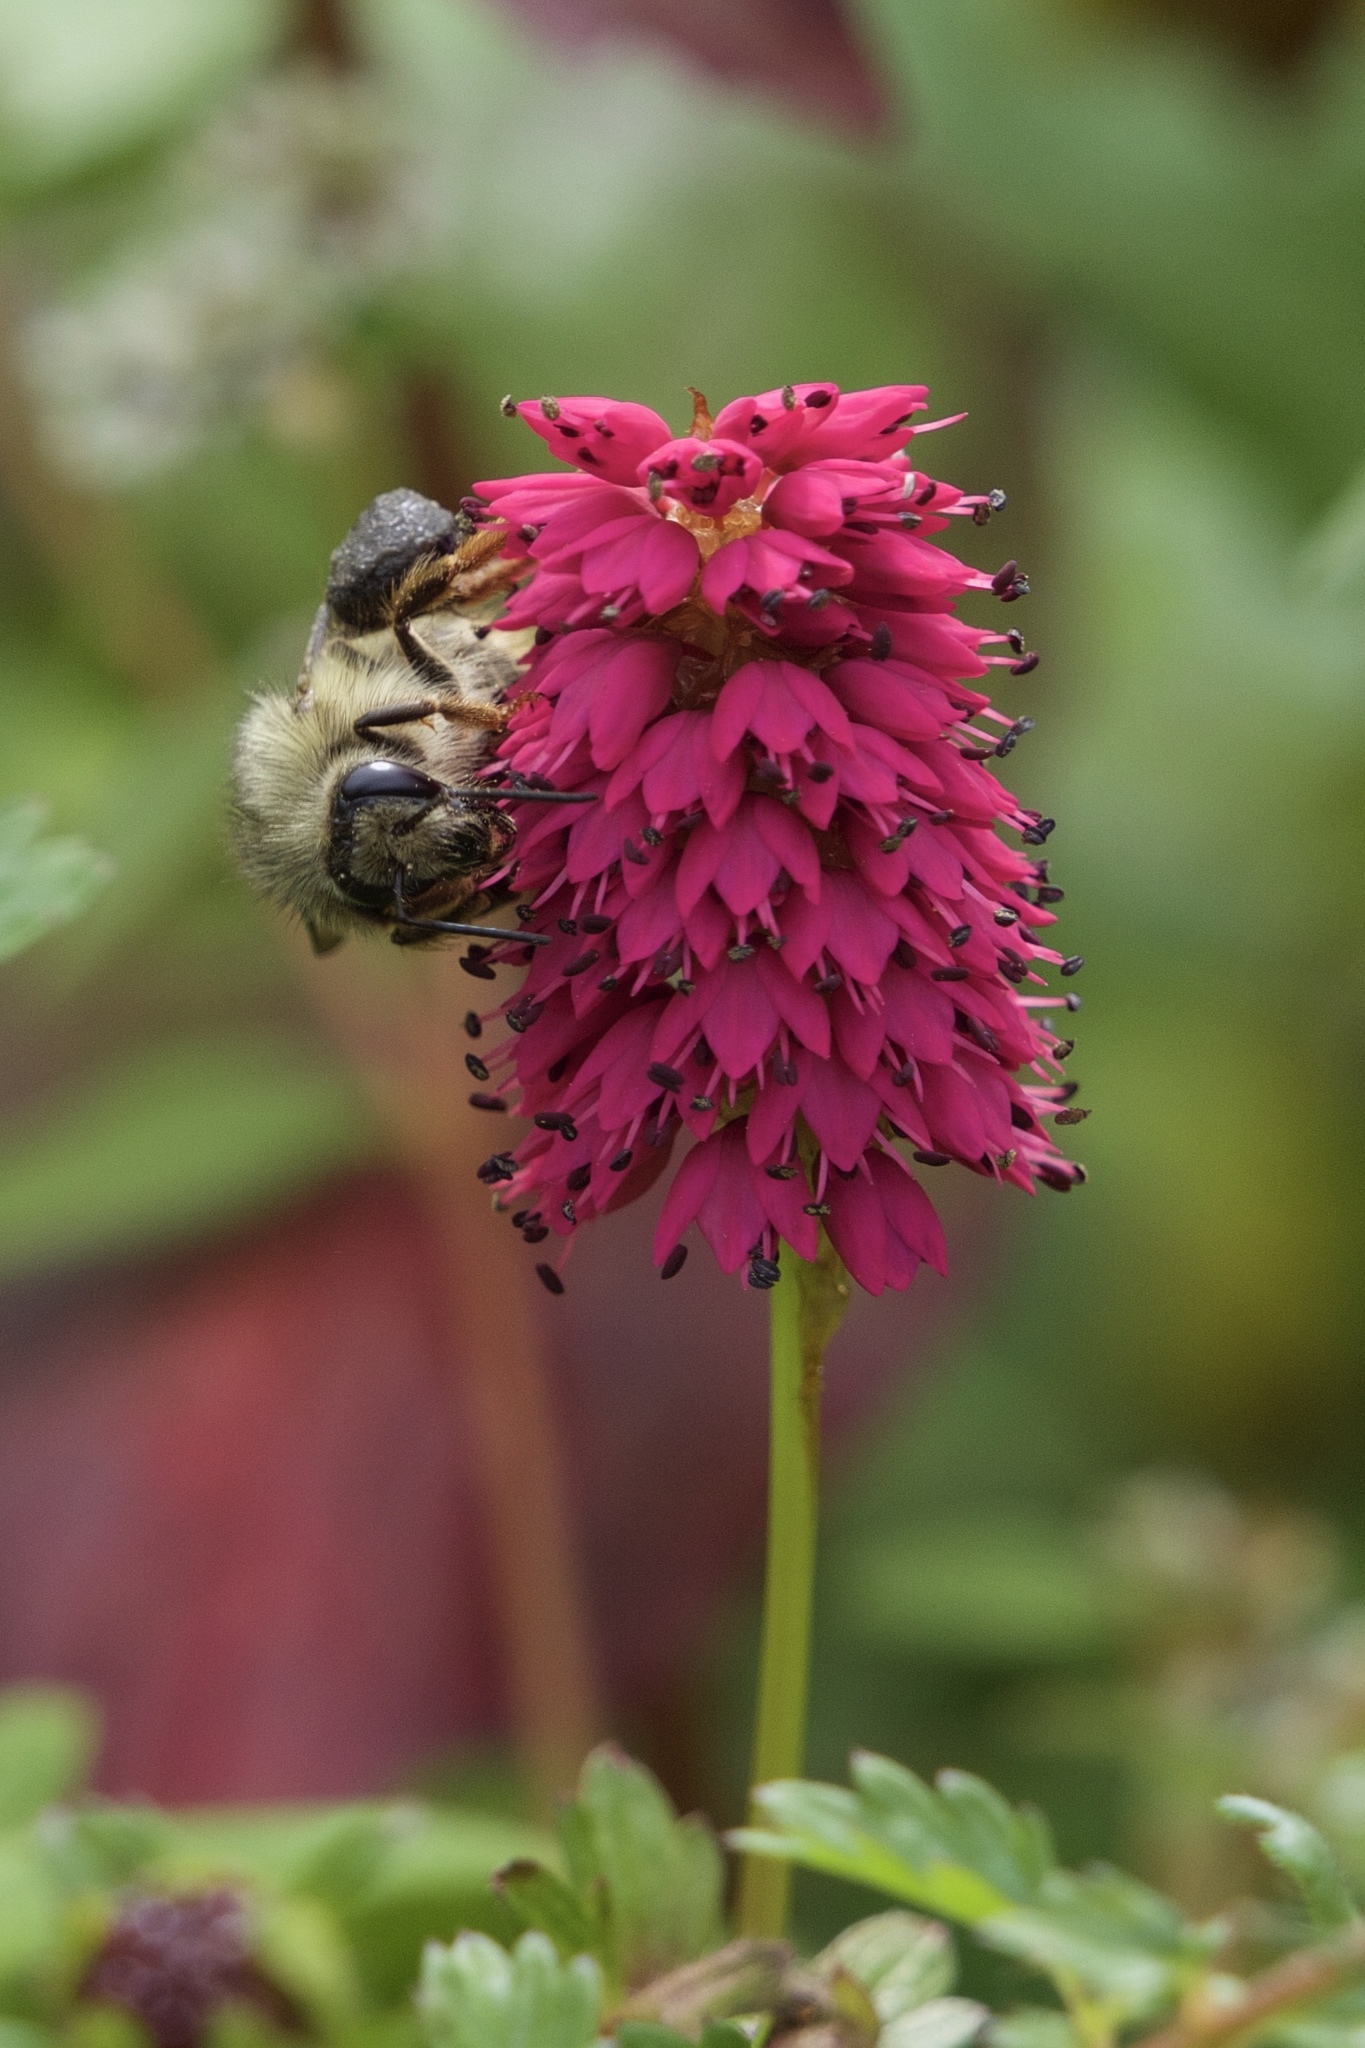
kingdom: Plantae
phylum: Tracheophyta
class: Magnoliopsida
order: Caryophyllales
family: Polygonaceae
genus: Bistorta
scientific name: Bistorta rubra
